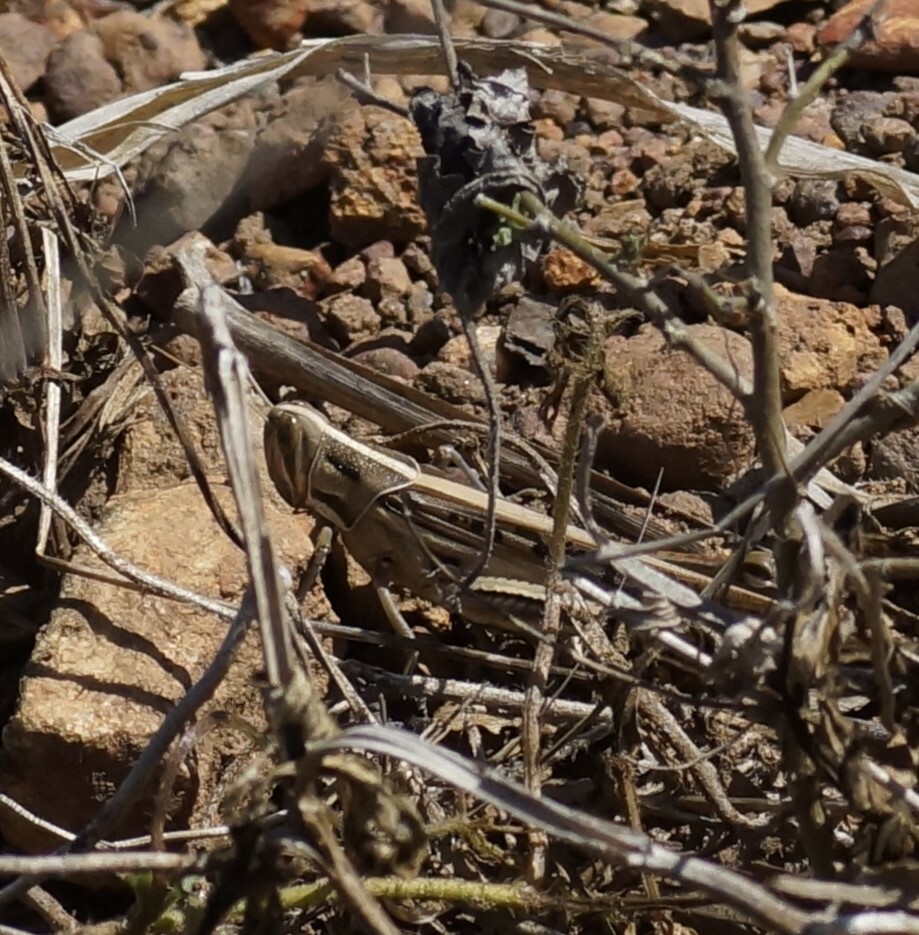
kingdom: Animalia
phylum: Arthropoda
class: Insecta
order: Orthoptera
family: Acrididae
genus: Austracris
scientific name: Austracris guttulosa
